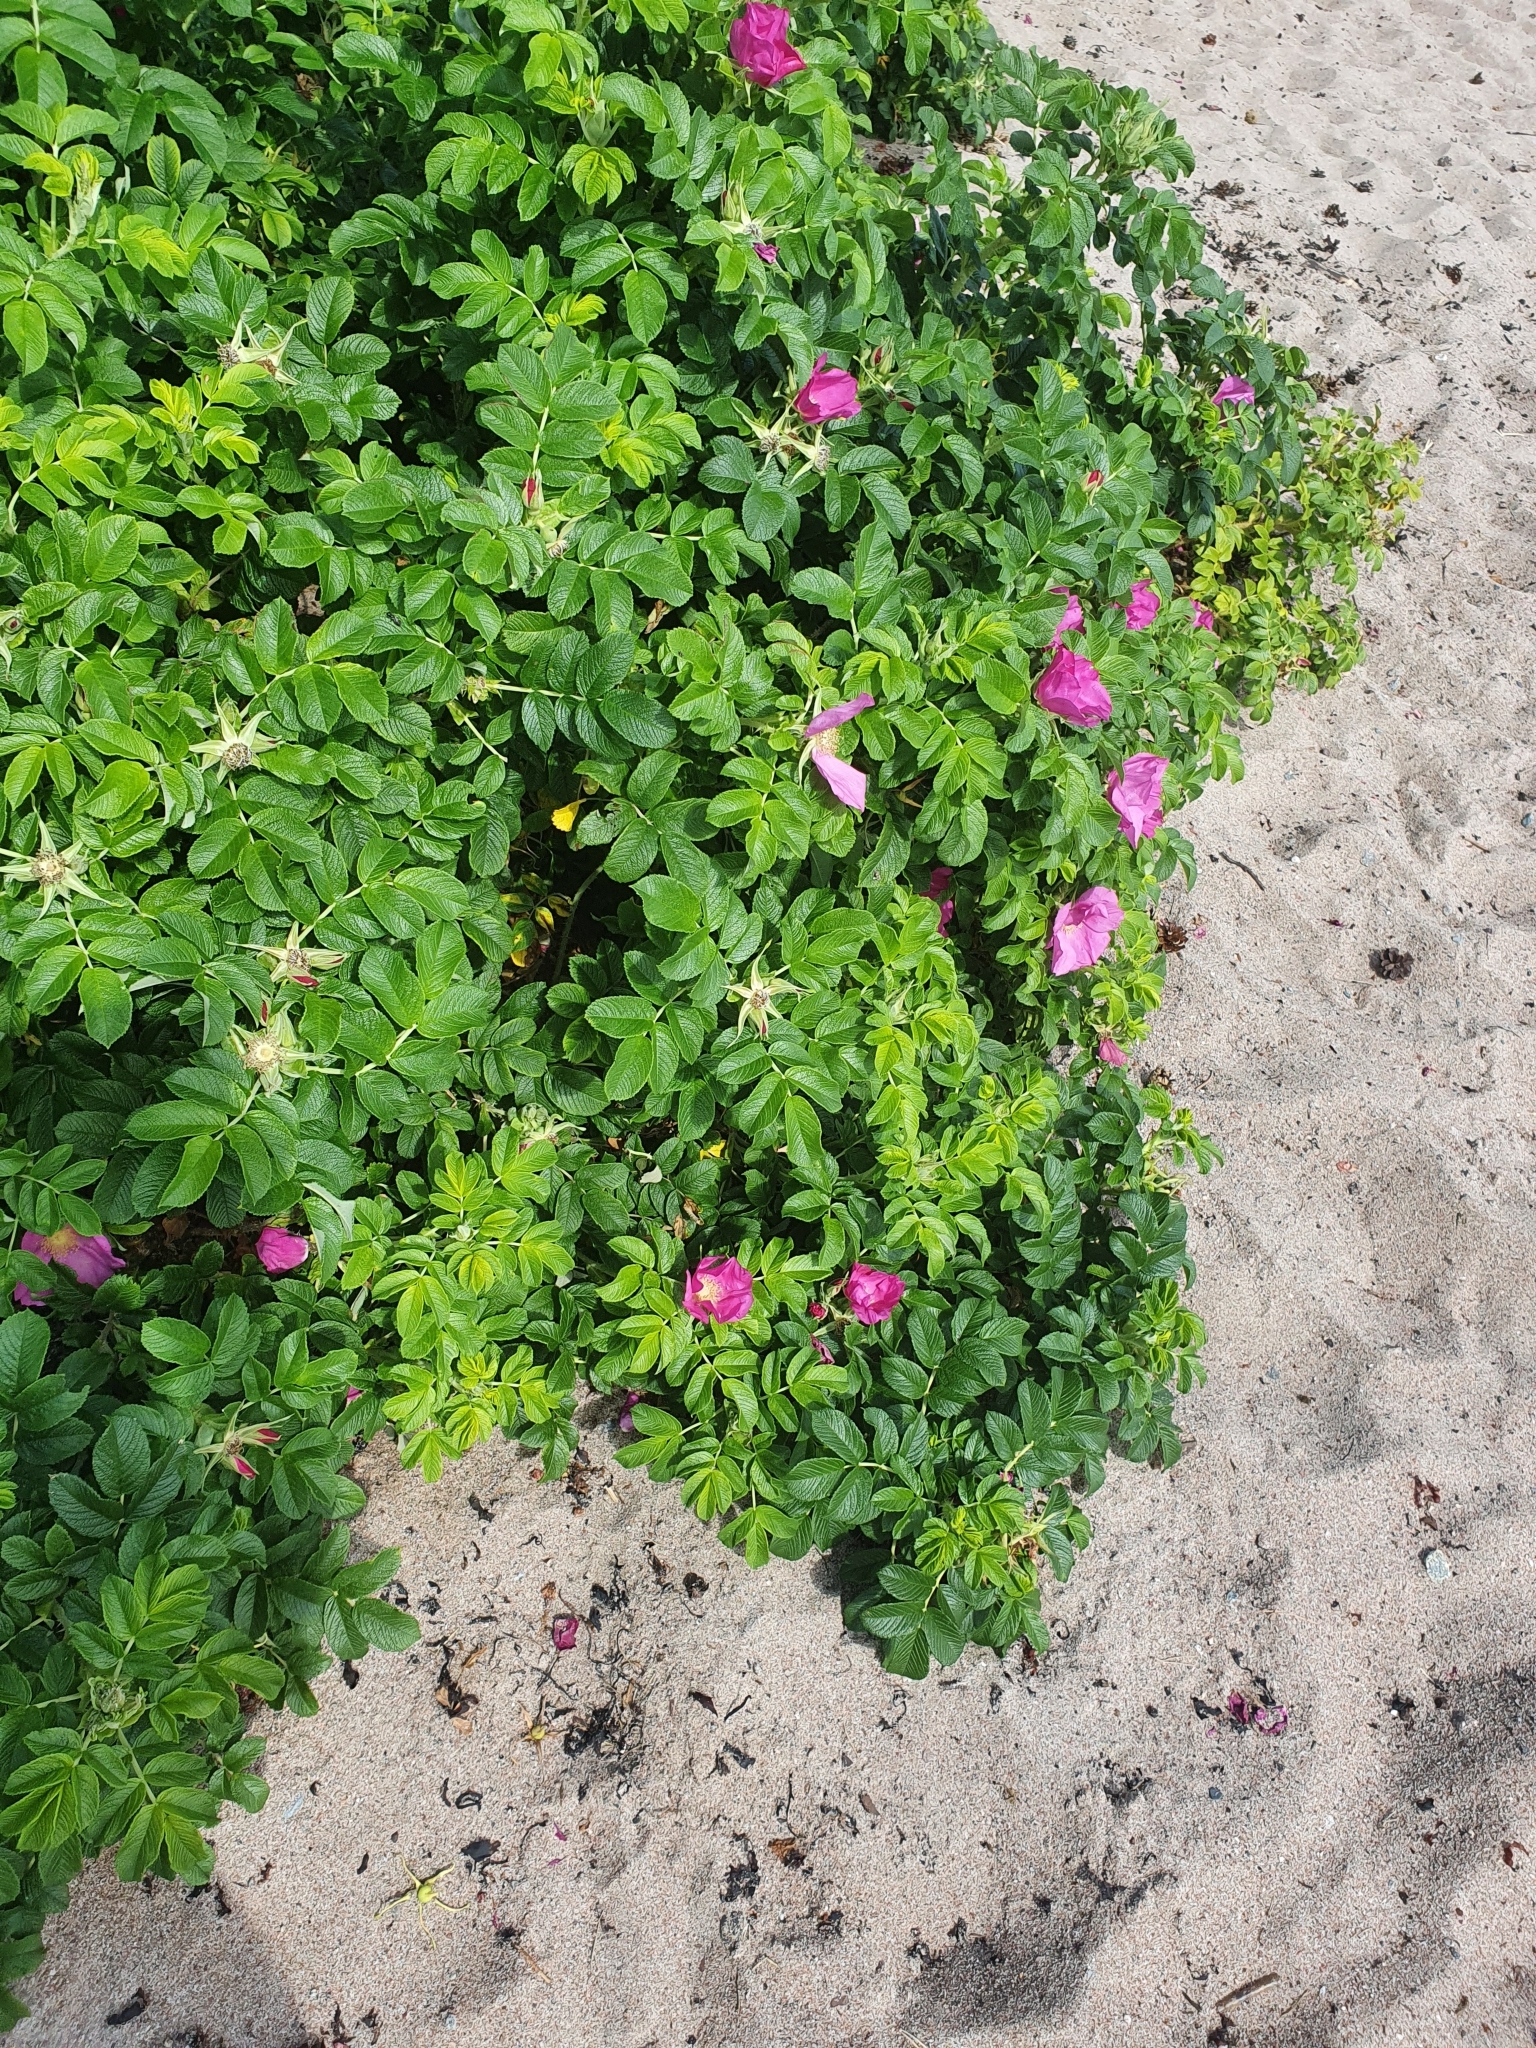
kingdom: Plantae
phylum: Tracheophyta
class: Magnoliopsida
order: Rosales
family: Rosaceae
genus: Rosa
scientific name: Rosa rugosa
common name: Japanese rose
